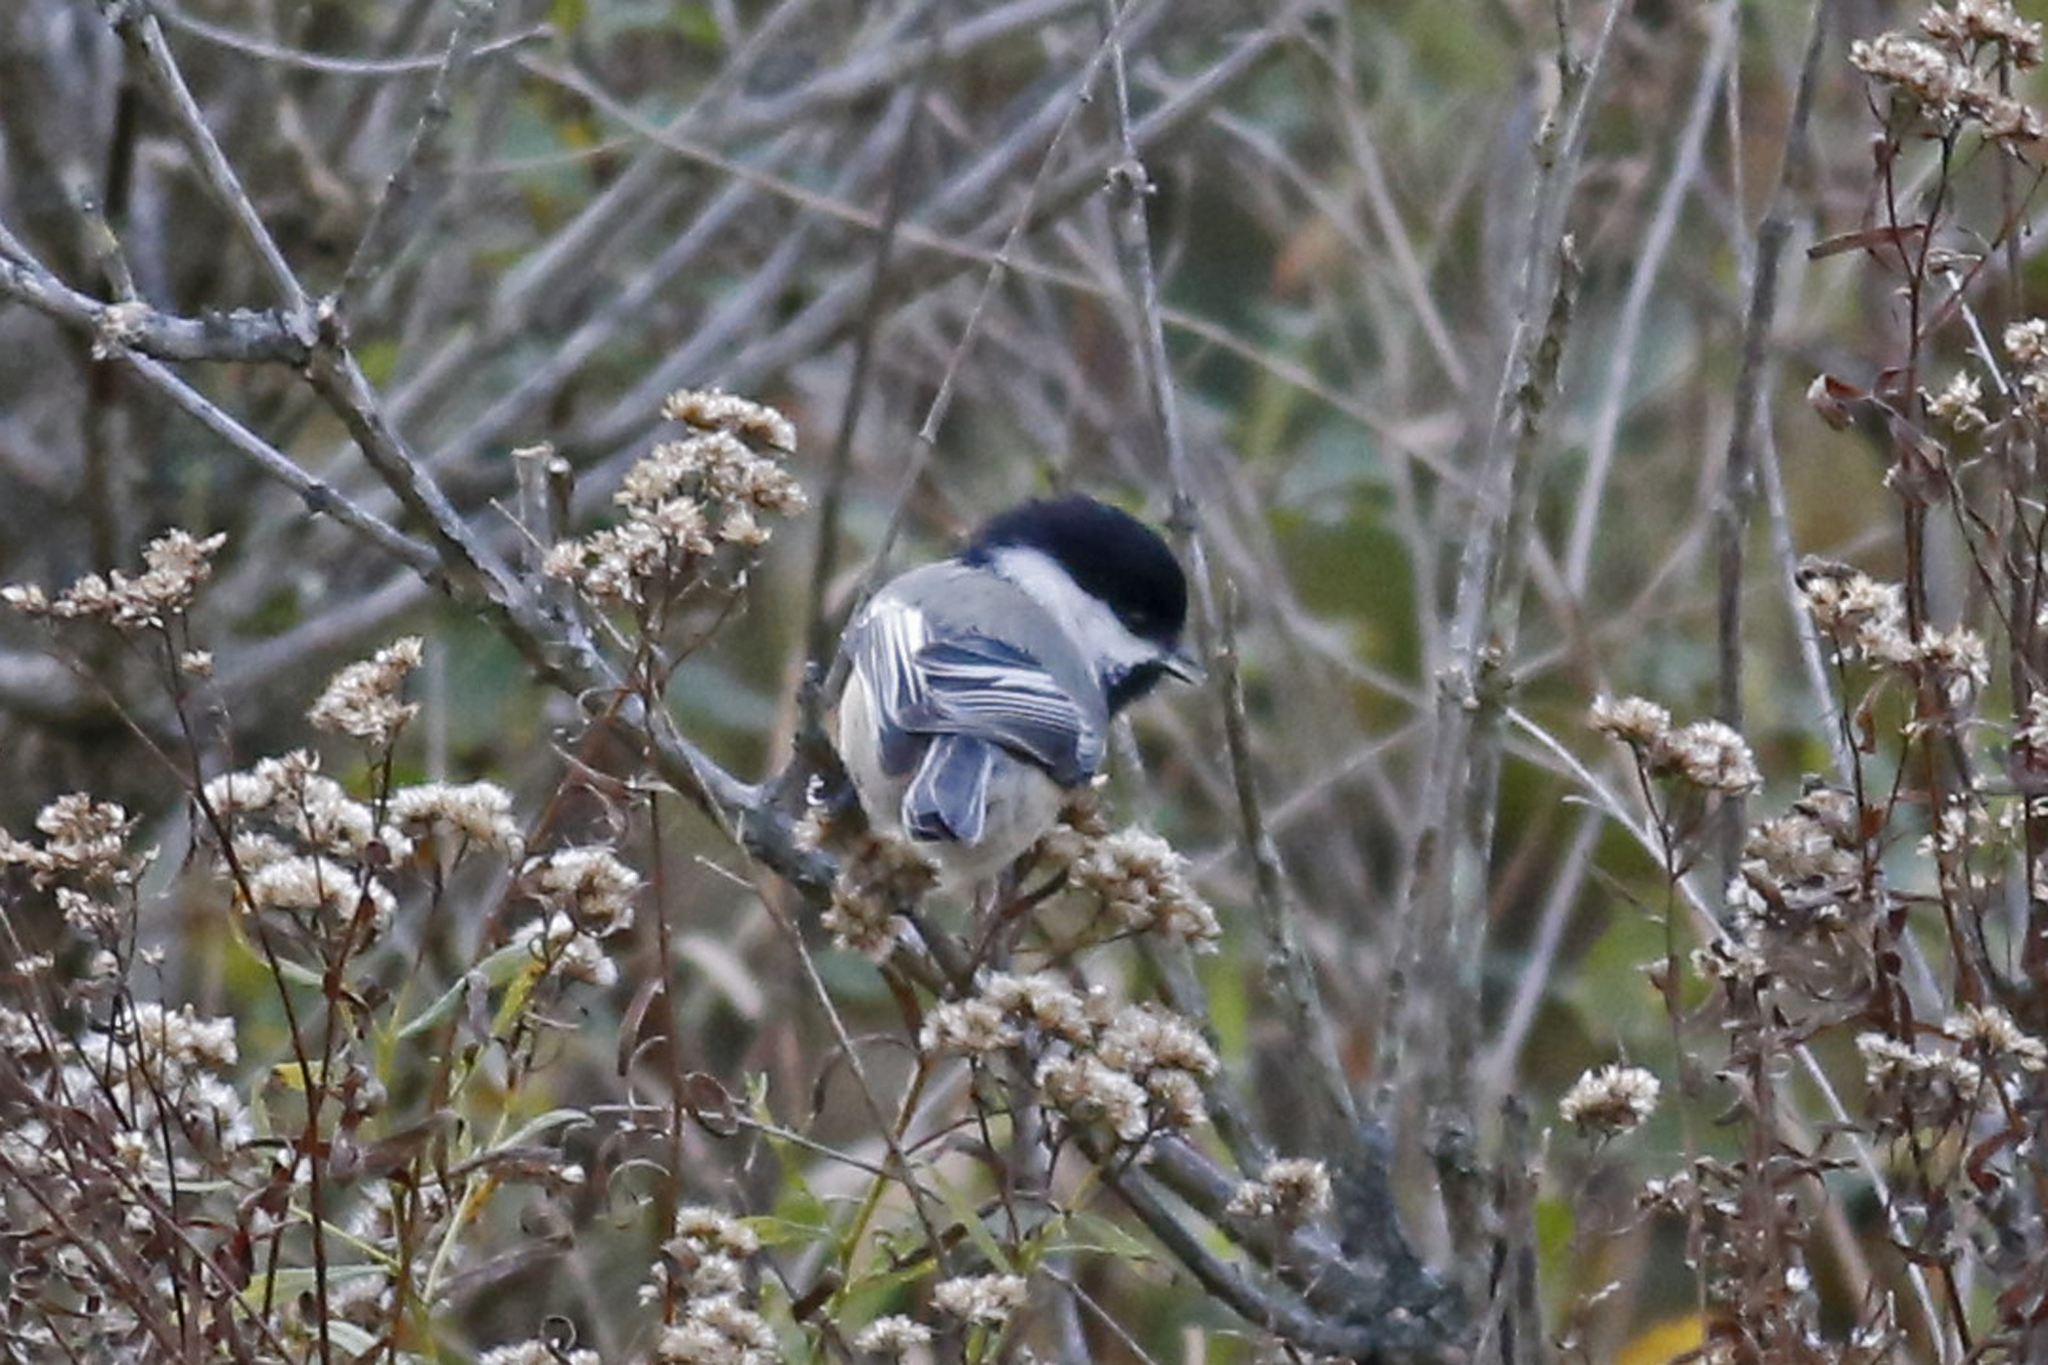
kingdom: Animalia
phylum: Chordata
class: Aves
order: Passeriformes
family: Paridae
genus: Poecile
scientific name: Poecile atricapillus
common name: Black-capped chickadee
